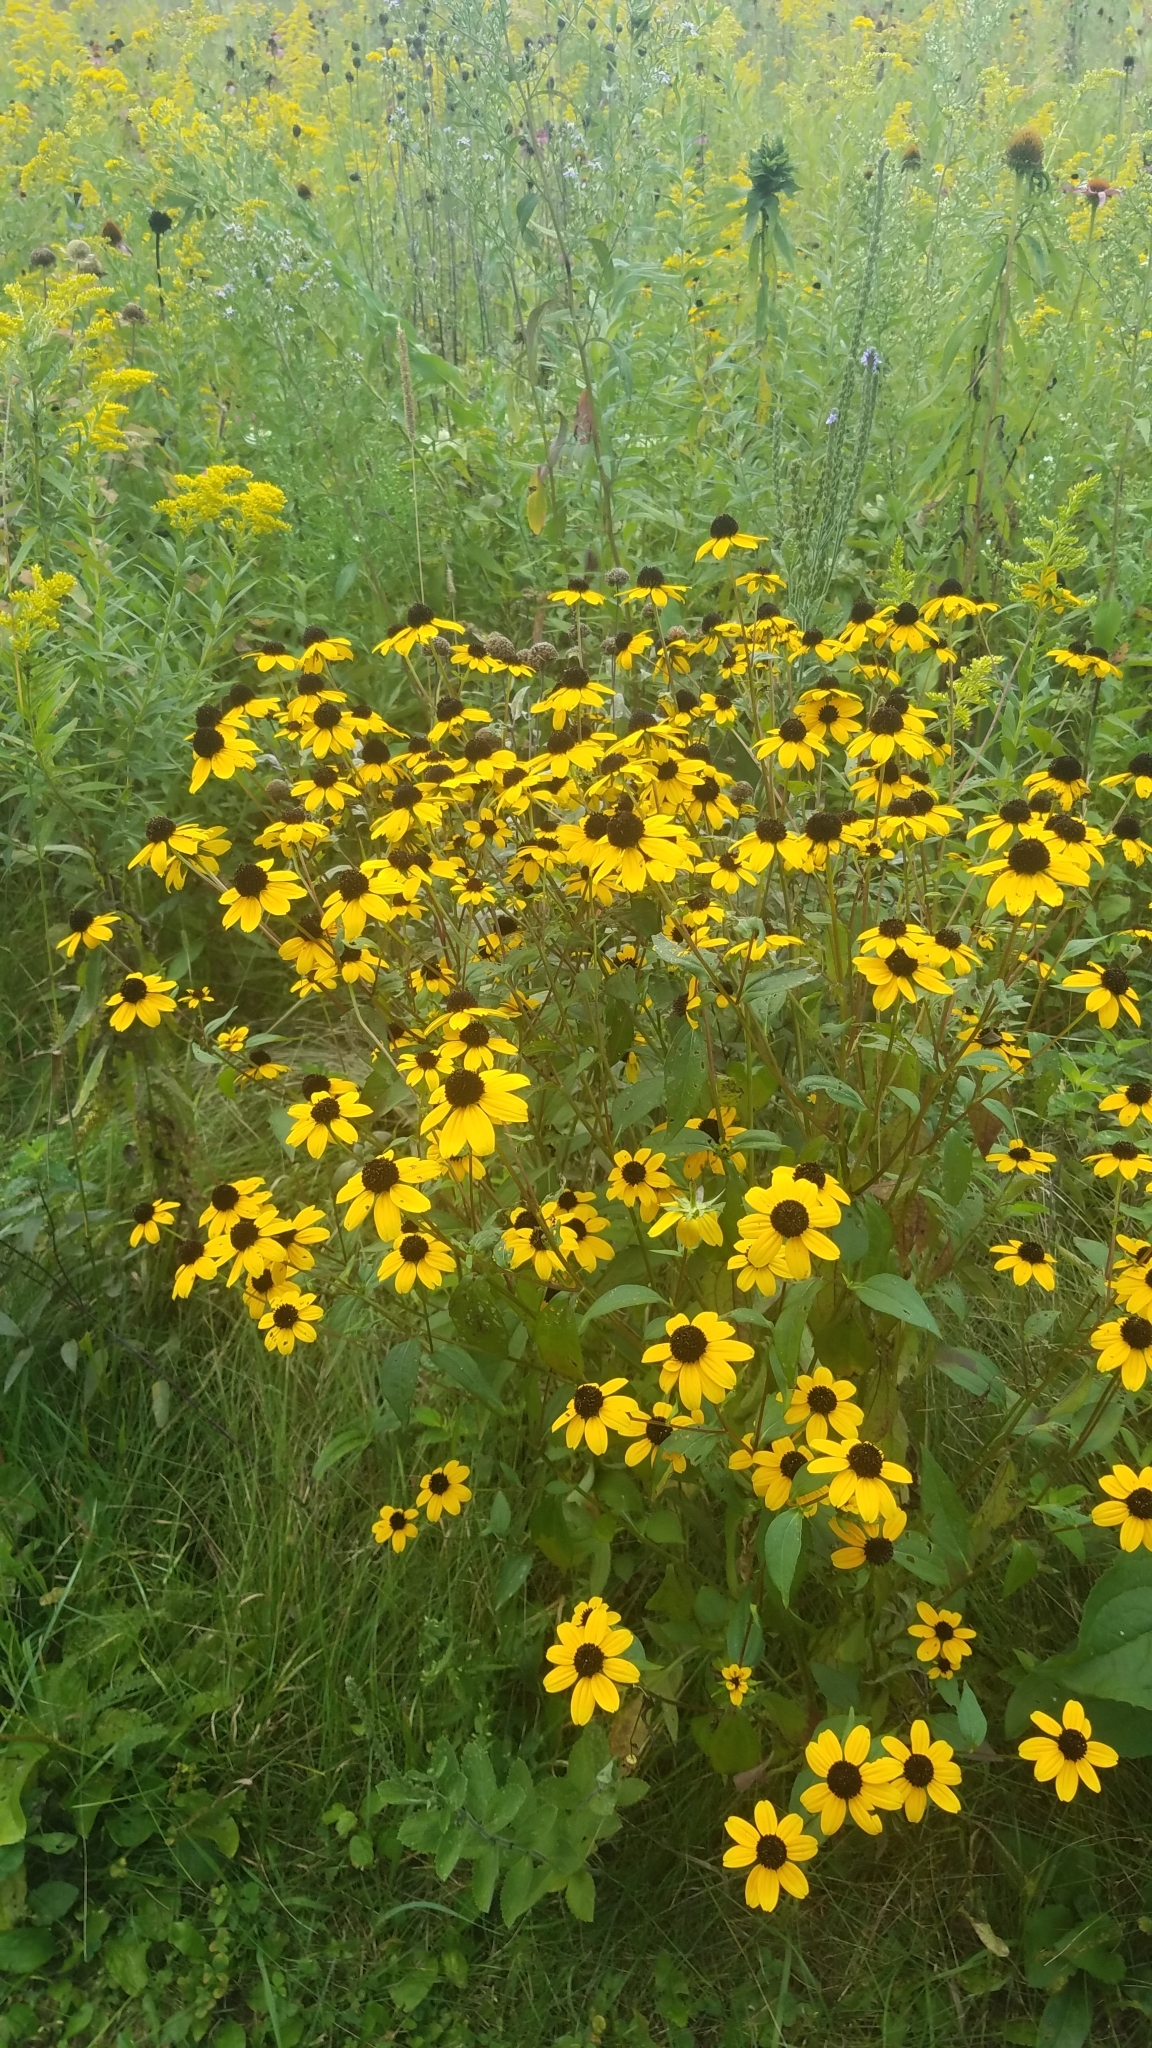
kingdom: Plantae
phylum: Tracheophyta
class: Magnoliopsida
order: Asterales
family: Asteraceae
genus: Rudbeckia
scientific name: Rudbeckia triloba
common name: Thin-leaved coneflower
